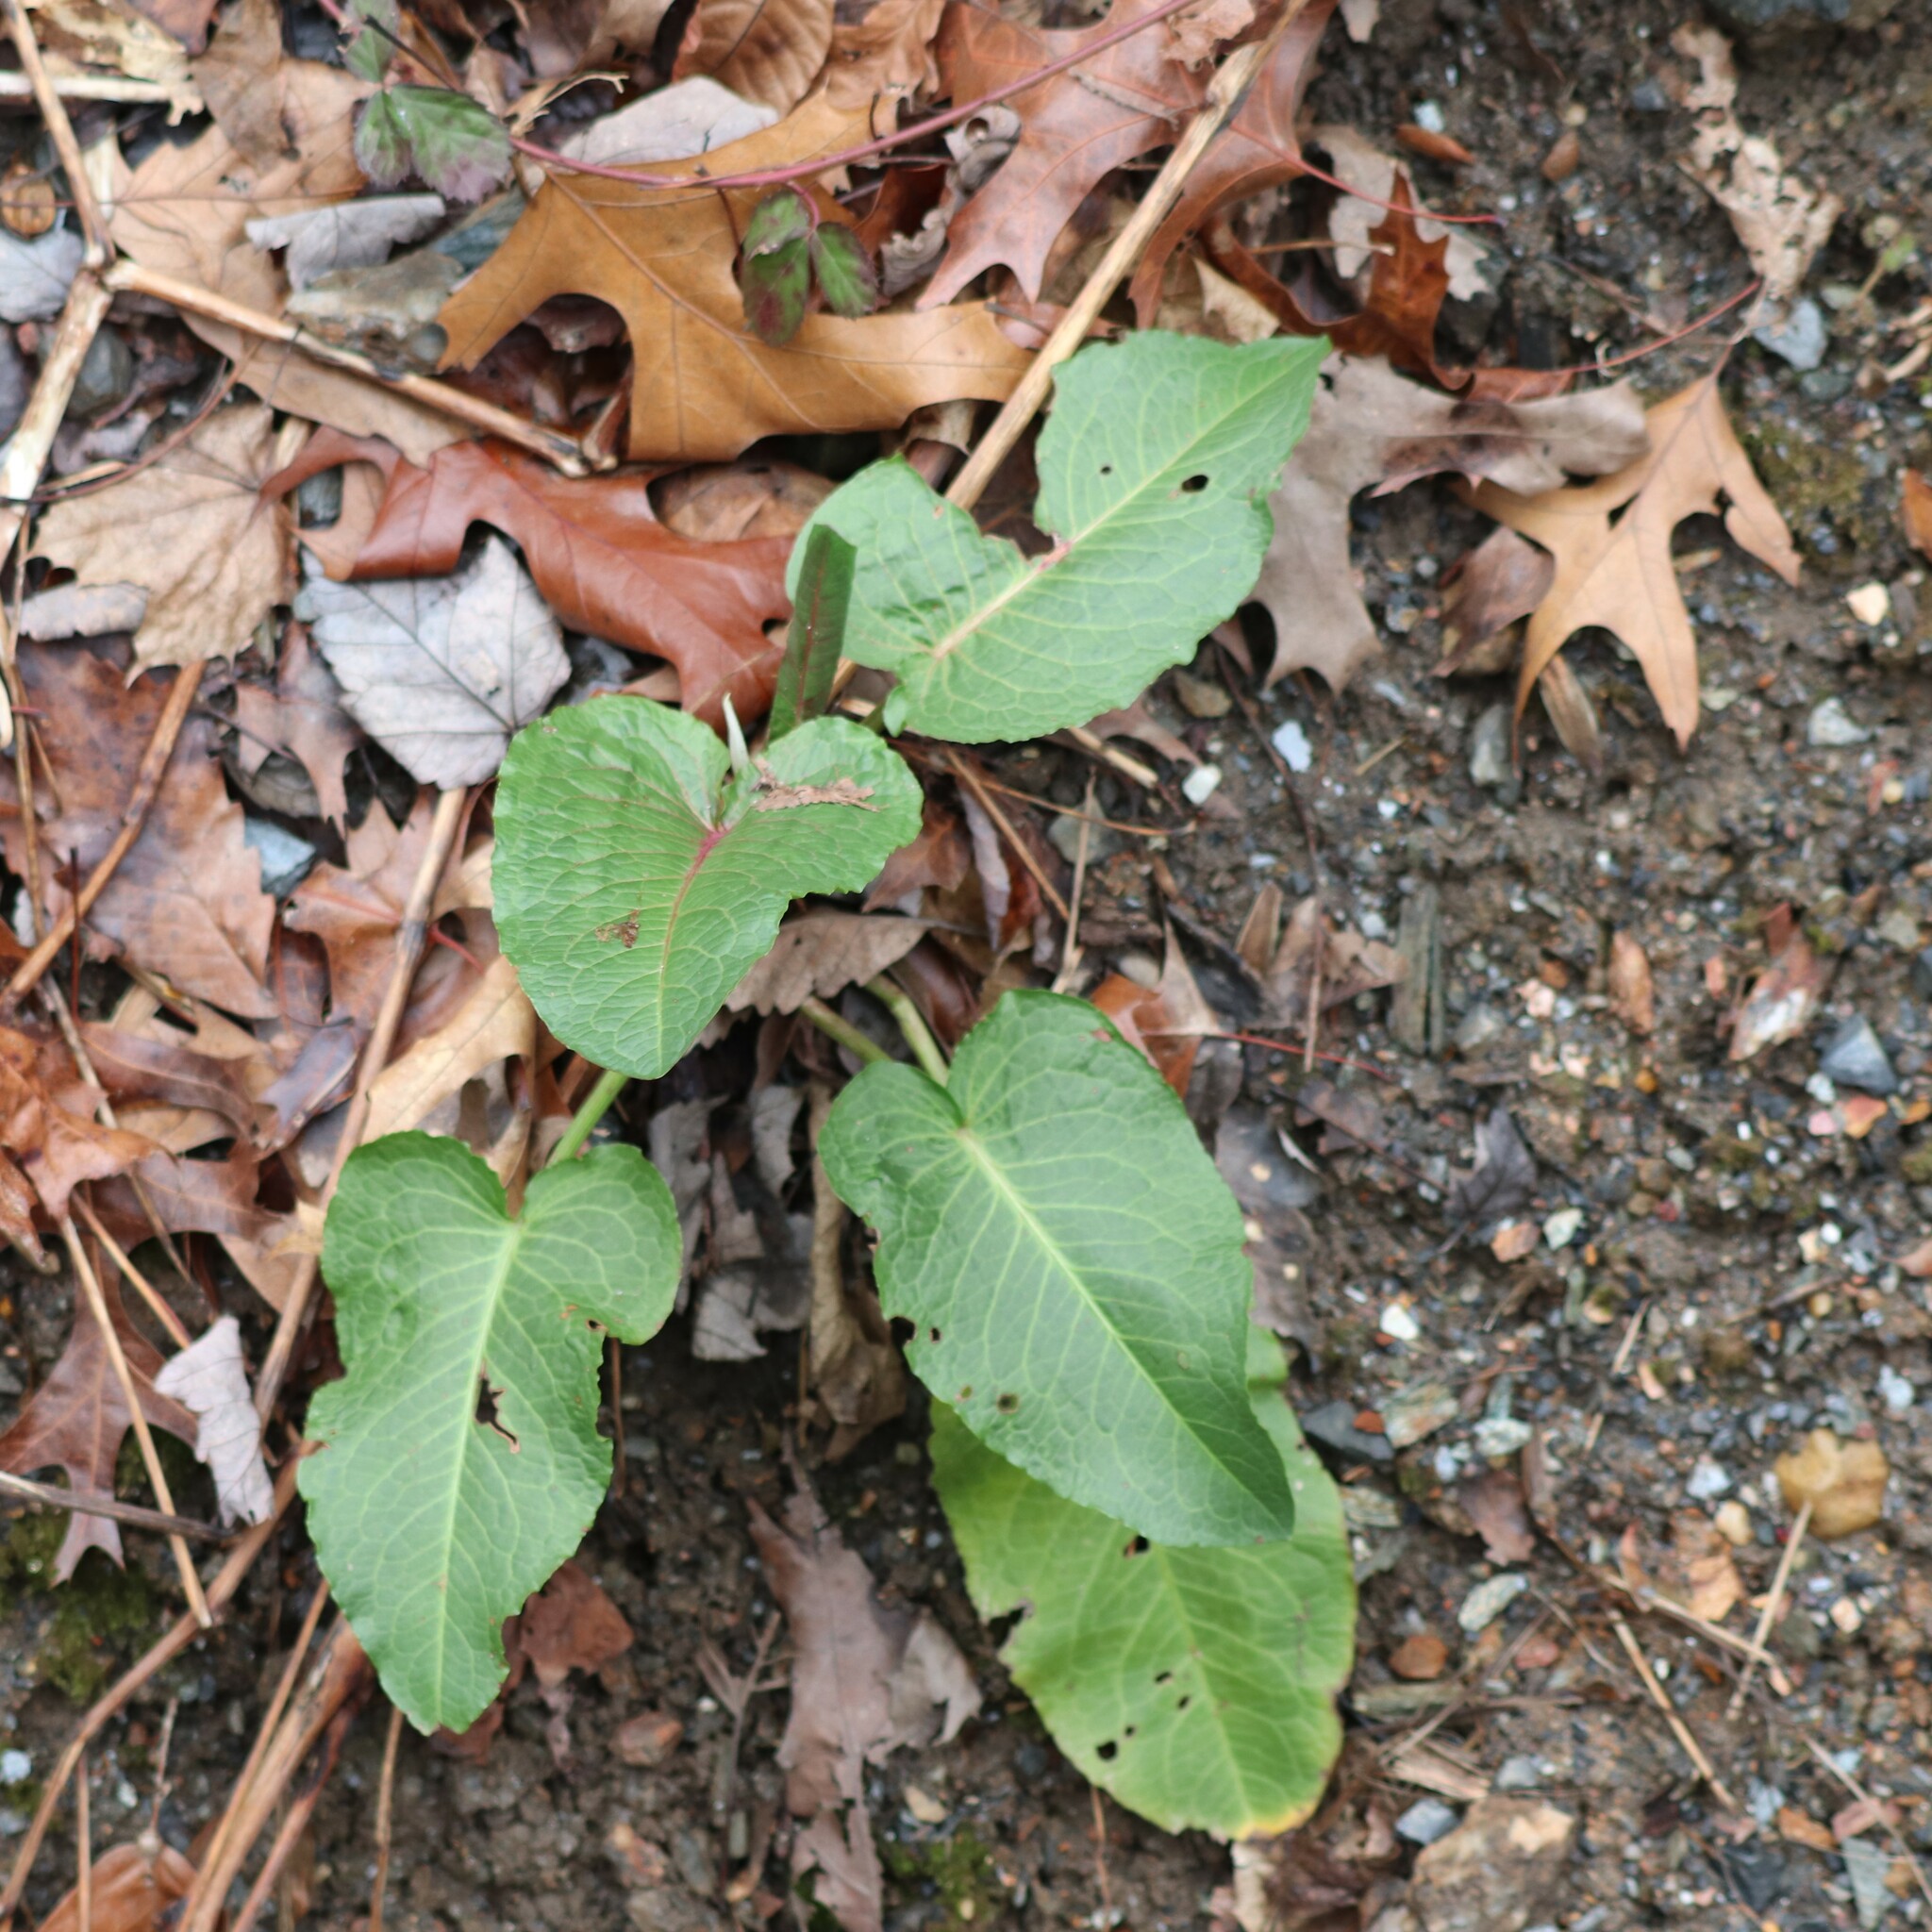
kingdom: Plantae
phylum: Tracheophyta
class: Magnoliopsida
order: Caryophyllales
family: Polygonaceae
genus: Rumex
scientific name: Rumex obtusifolius
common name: Bitter dock
